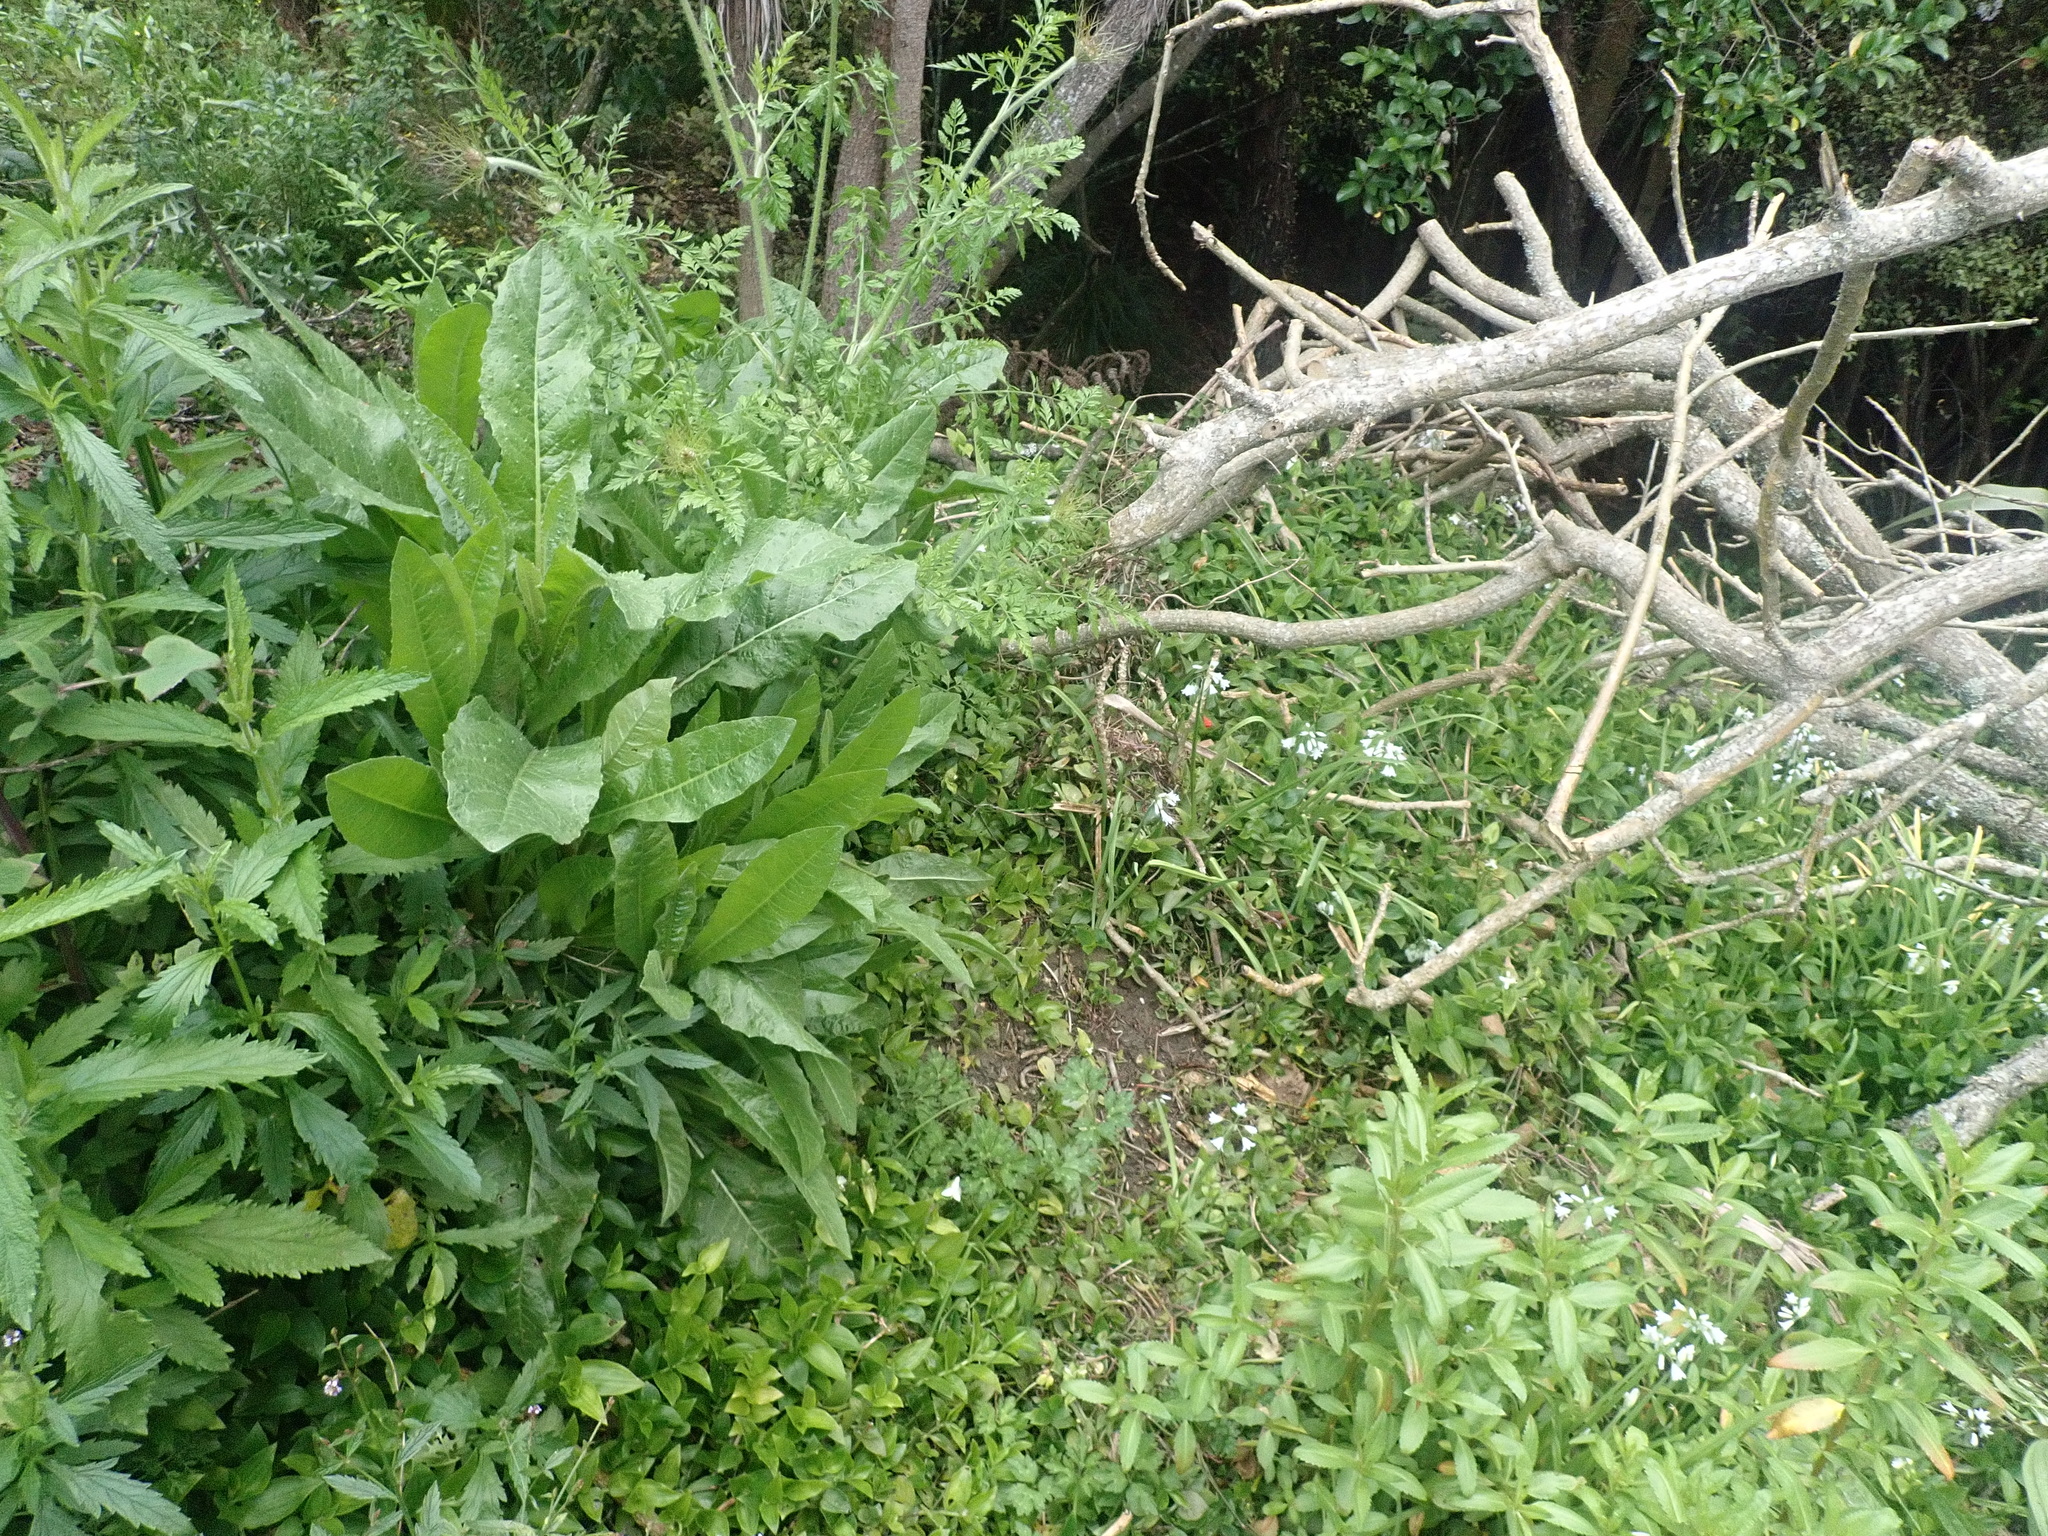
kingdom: Plantae
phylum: Tracheophyta
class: Magnoliopsida
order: Asterales
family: Asteraceae
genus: Helminthotheca
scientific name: Helminthotheca echioides
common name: Ox-tongue
